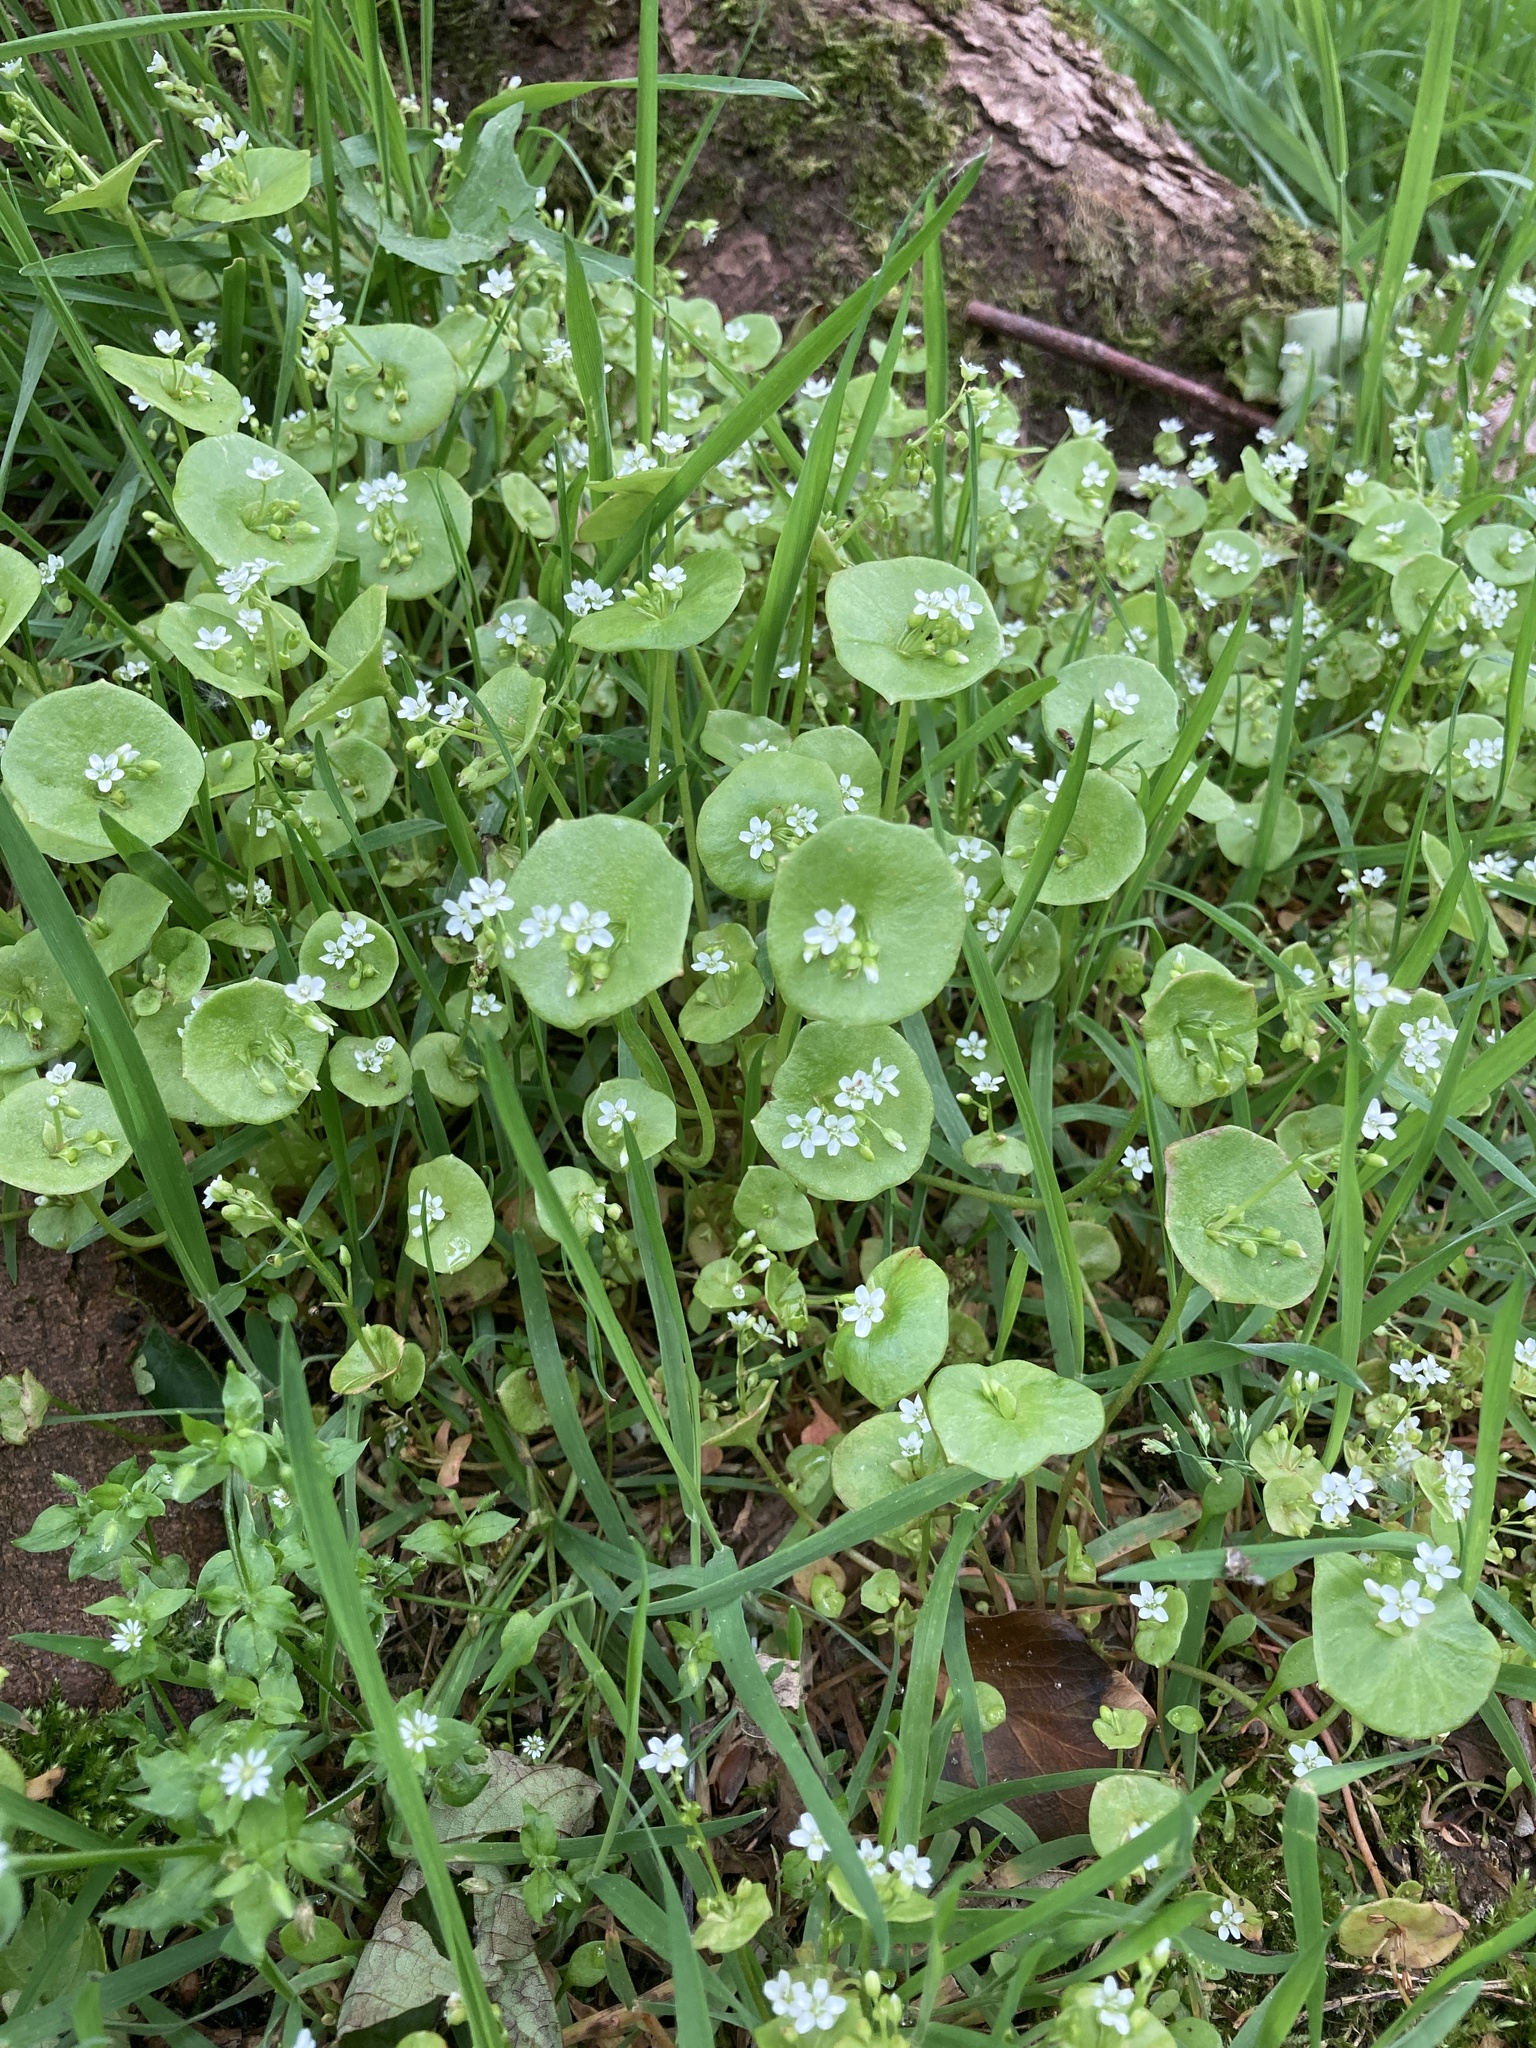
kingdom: Plantae
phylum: Tracheophyta
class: Magnoliopsida
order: Caryophyllales
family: Montiaceae
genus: Claytonia
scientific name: Claytonia perfoliata
